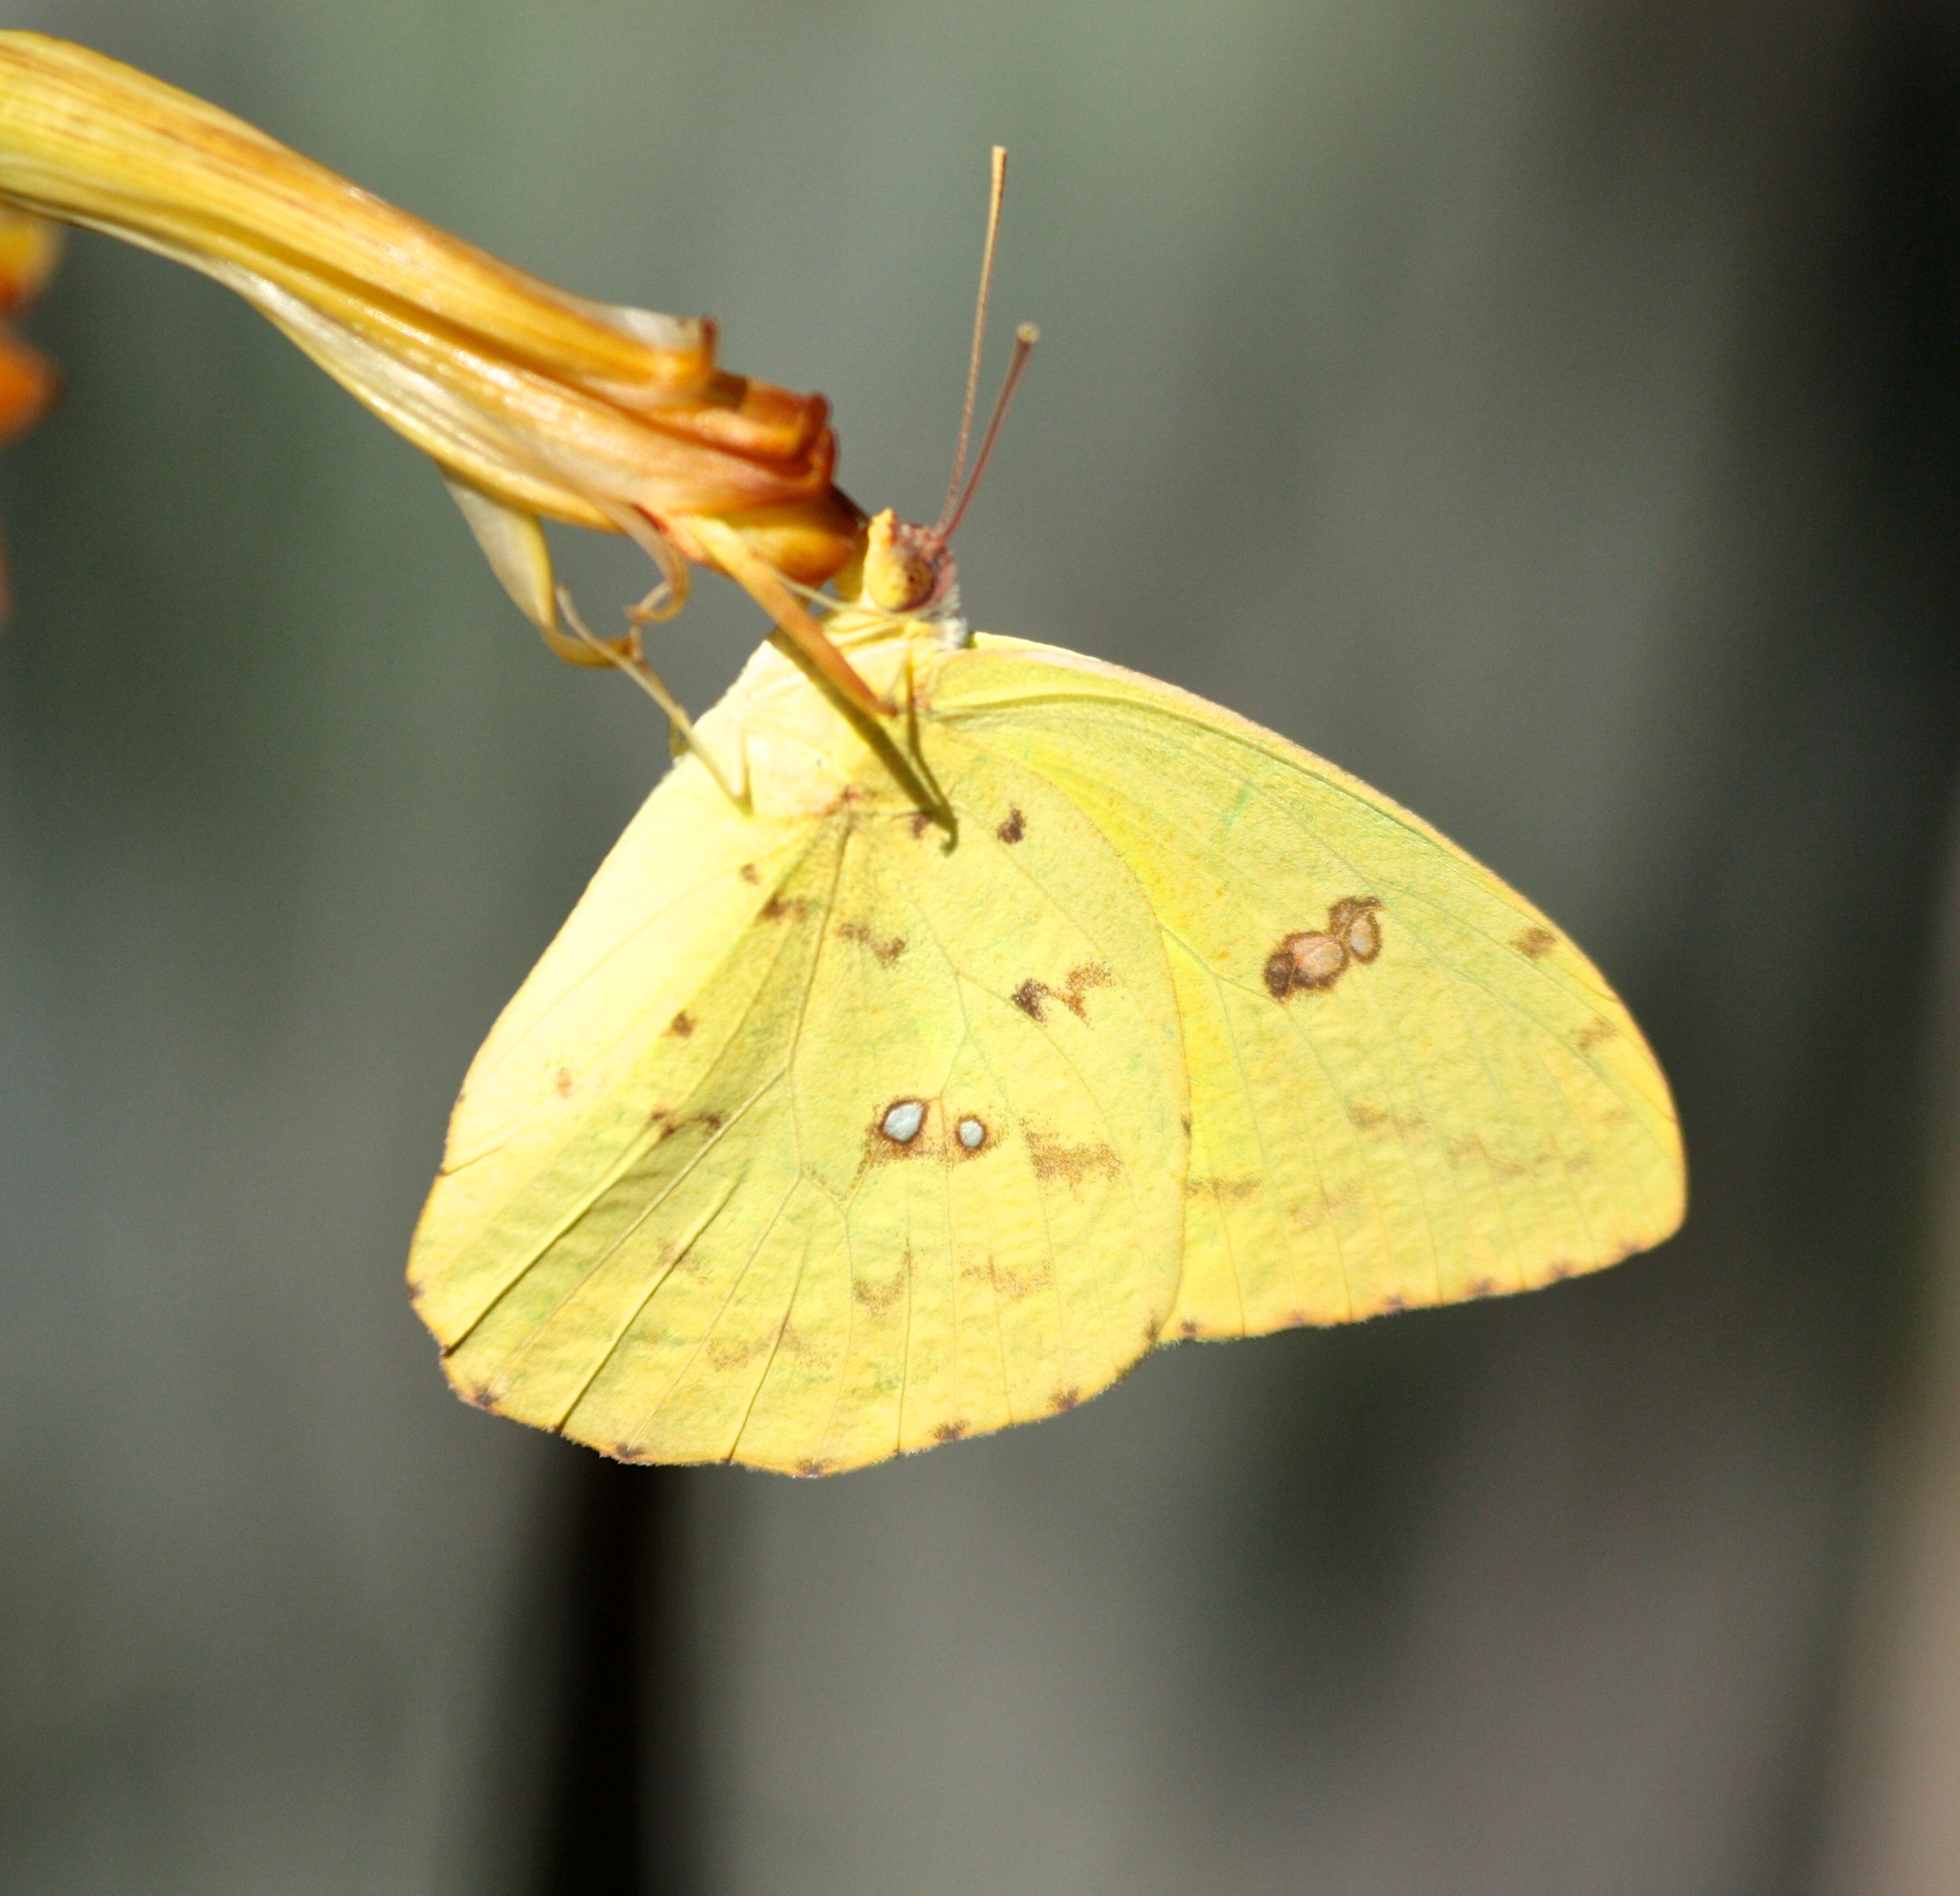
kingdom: Animalia
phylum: Arthropoda
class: Insecta
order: Lepidoptera
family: Pieridae
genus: Phoebis
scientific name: Phoebis sennae
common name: Cloudless sulphur
